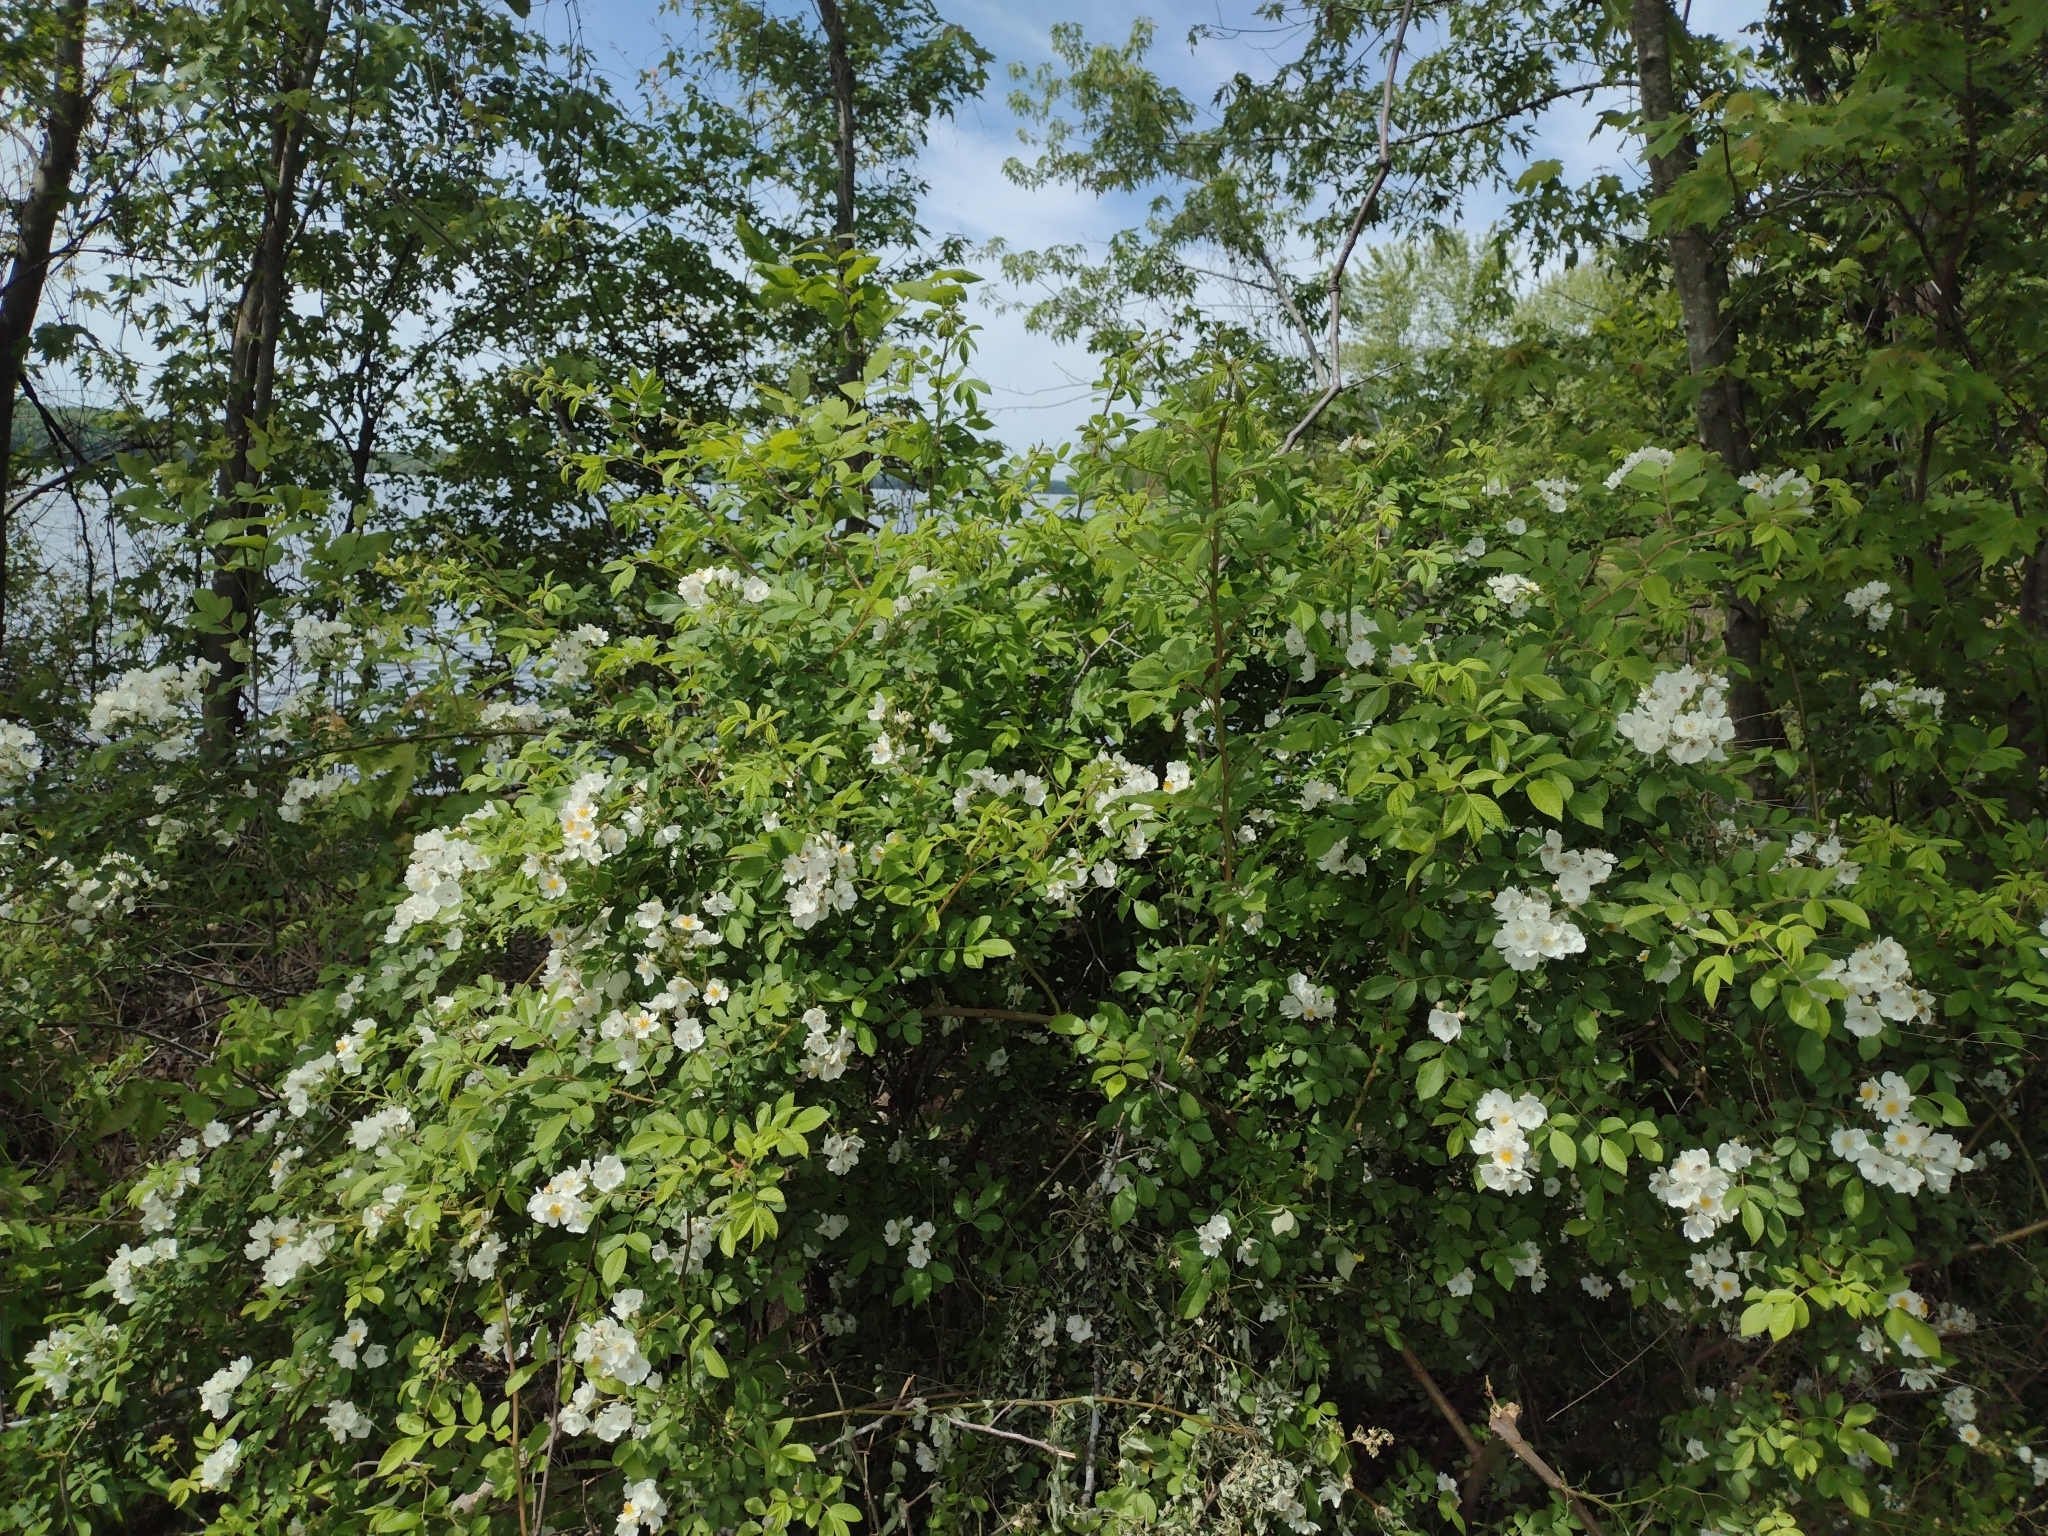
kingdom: Plantae
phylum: Tracheophyta
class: Magnoliopsida
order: Rosales
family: Rosaceae
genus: Rosa
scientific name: Rosa multiflora
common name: Multiflora rose
